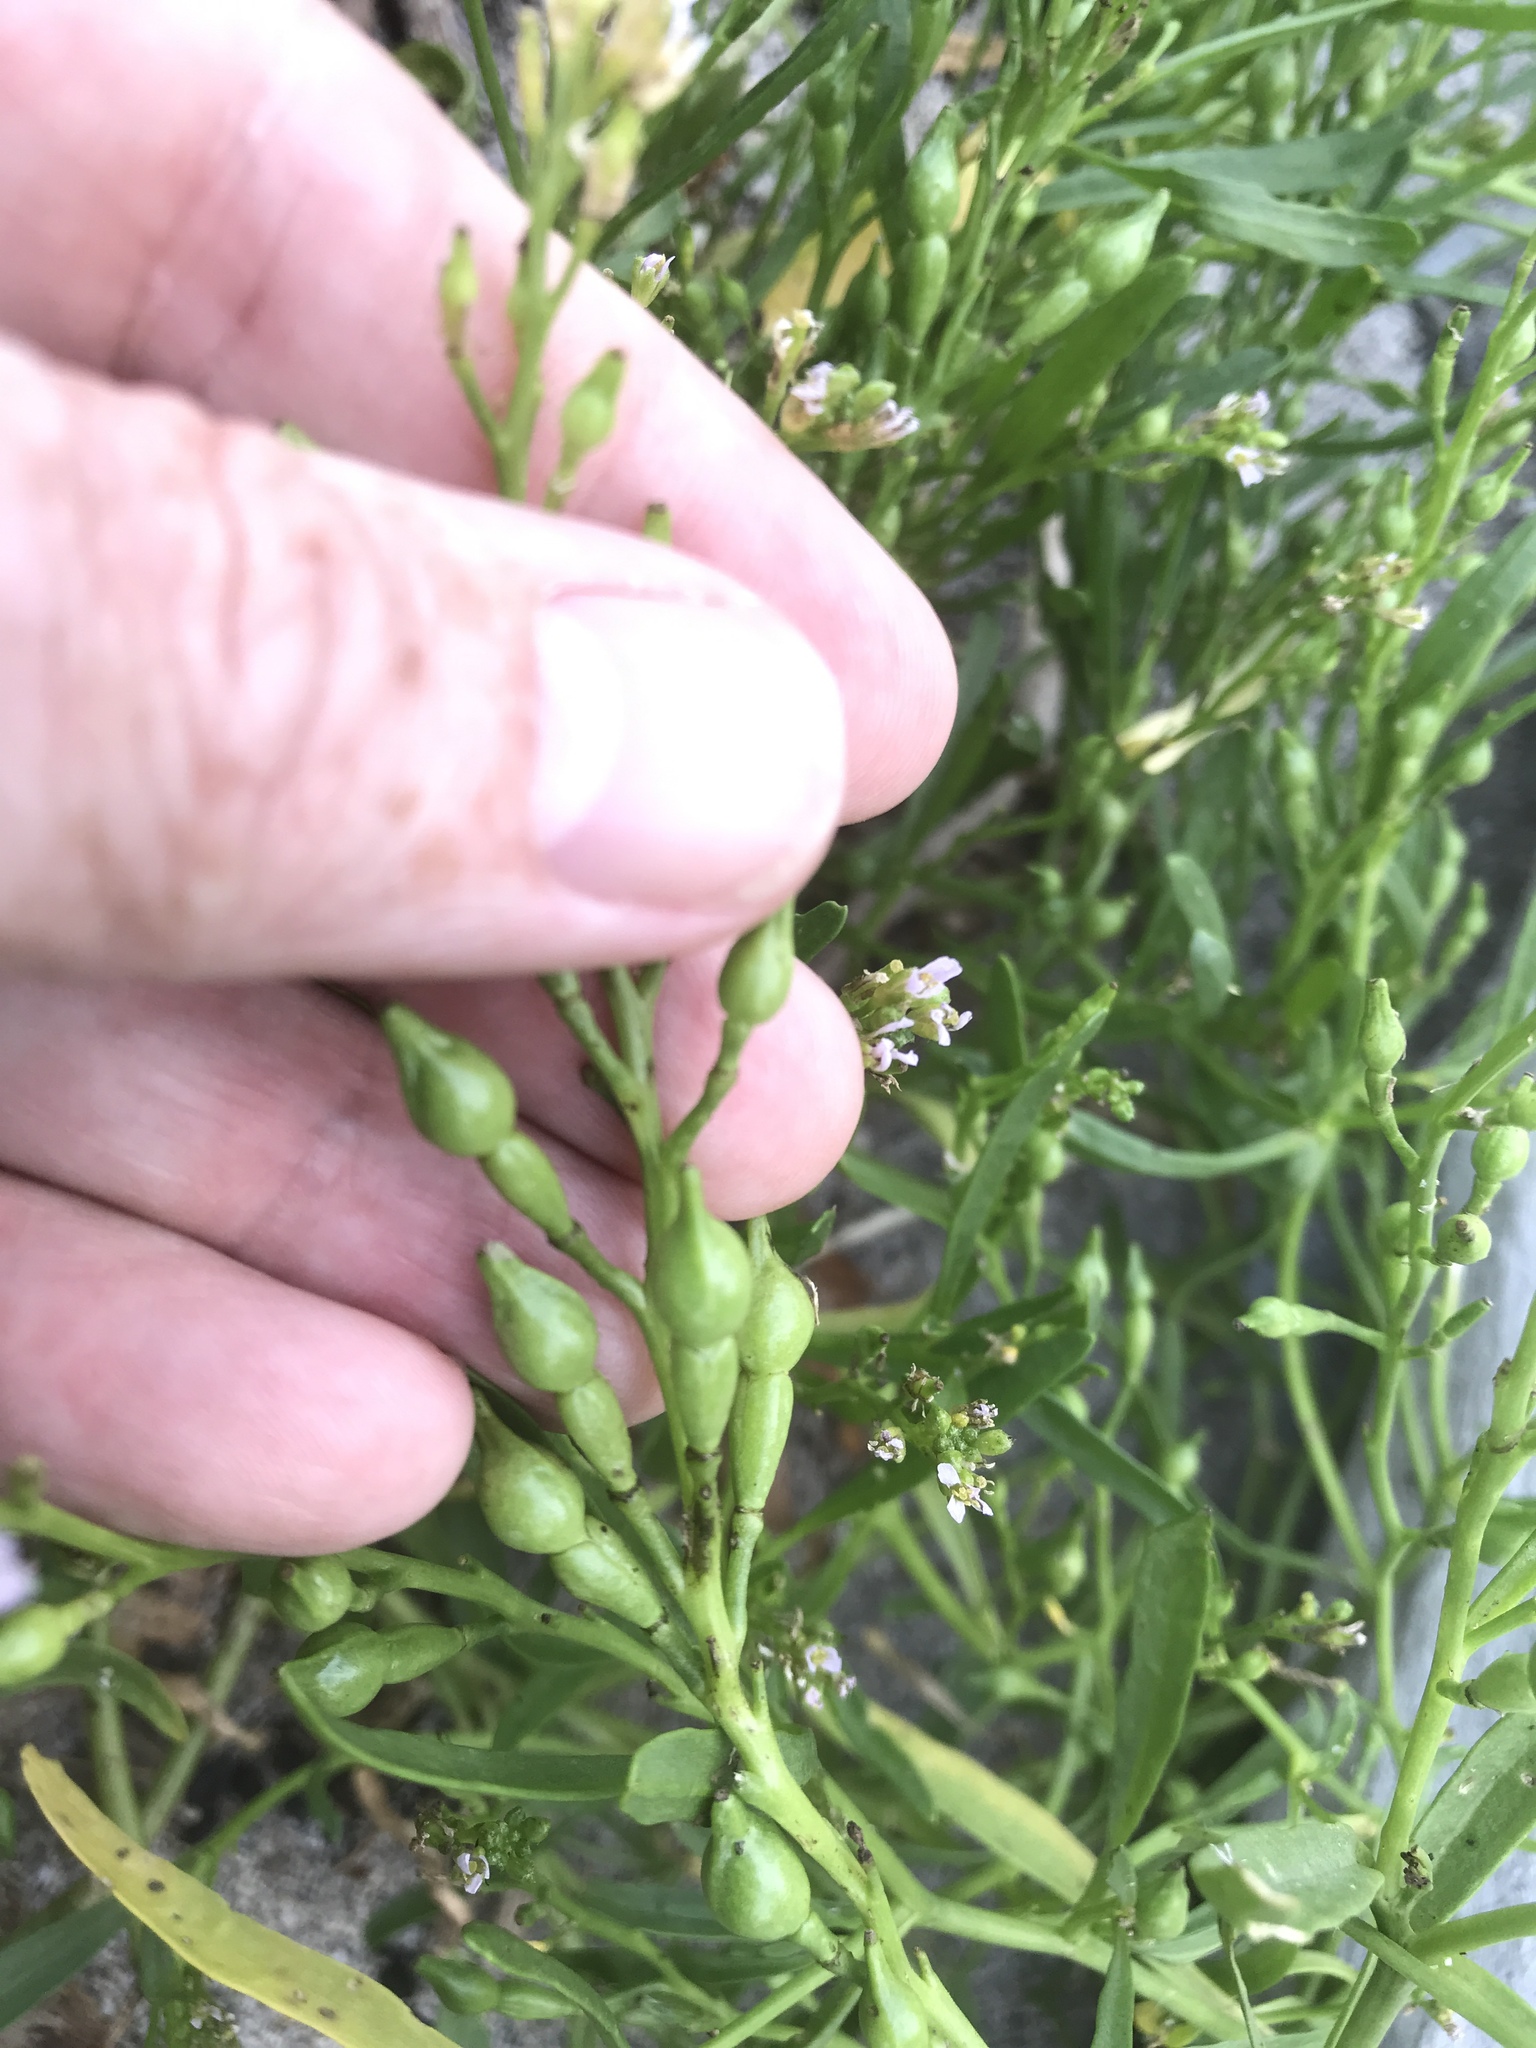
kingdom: Plantae
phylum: Tracheophyta
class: Magnoliopsida
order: Brassicales
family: Brassicaceae
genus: Cakile
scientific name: Cakile edentula
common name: American sea rocket
